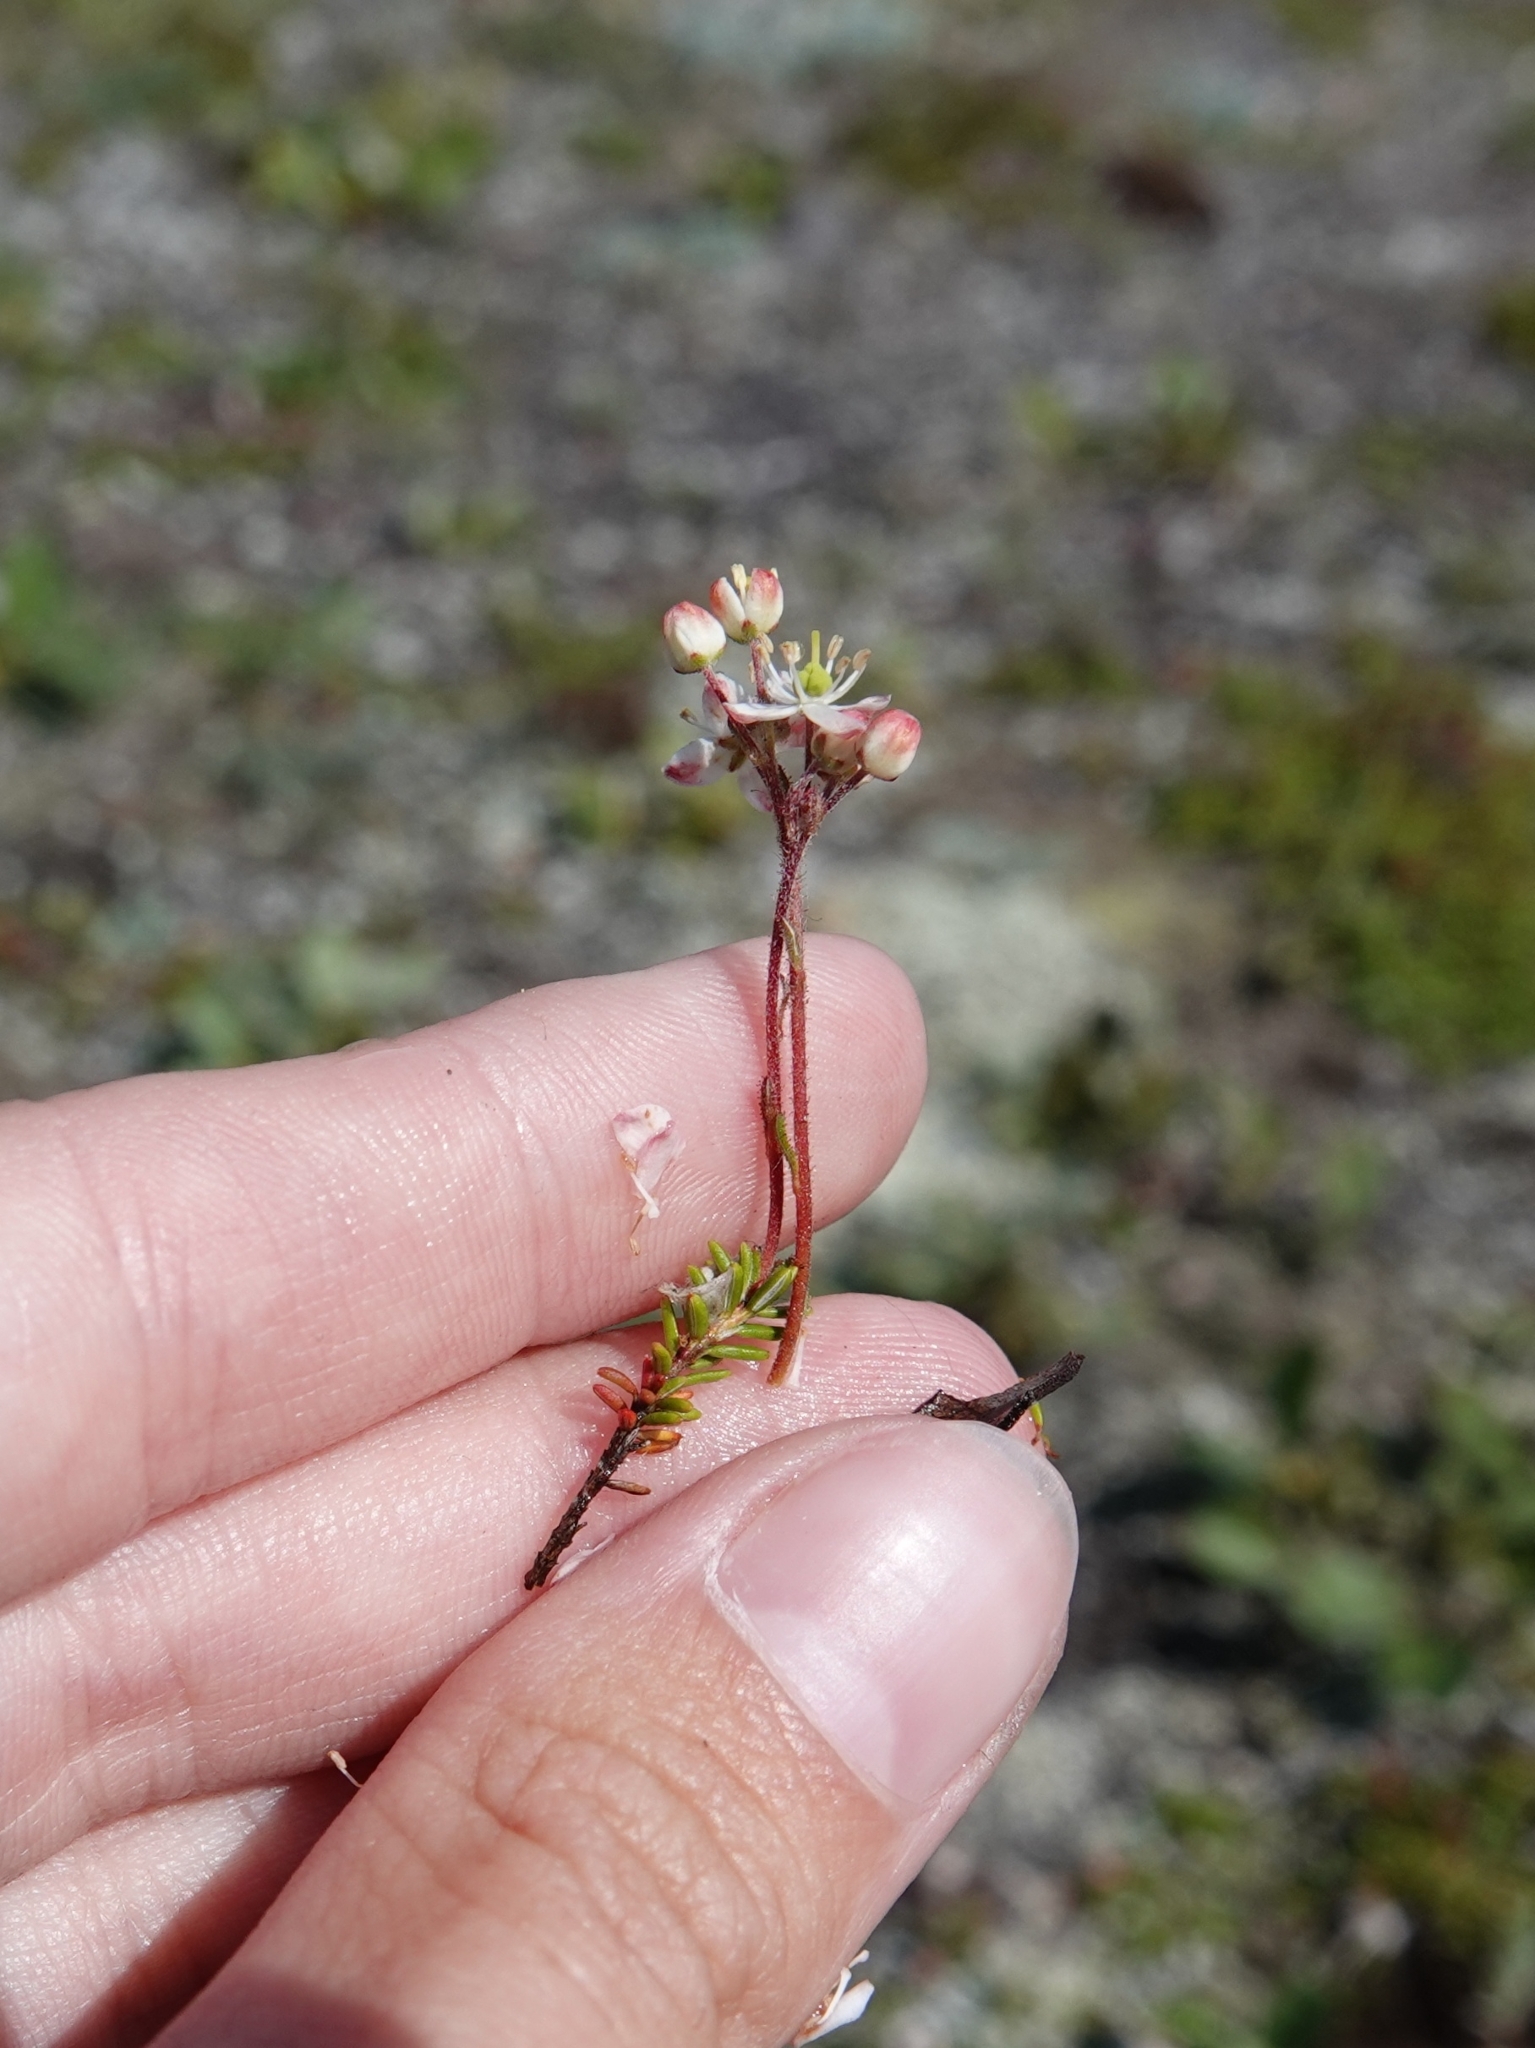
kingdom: Plantae
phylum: Tracheophyta
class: Magnoliopsida
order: Ericales
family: Ericaceae
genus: Bryanthus
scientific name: Bryanthus musciformis
